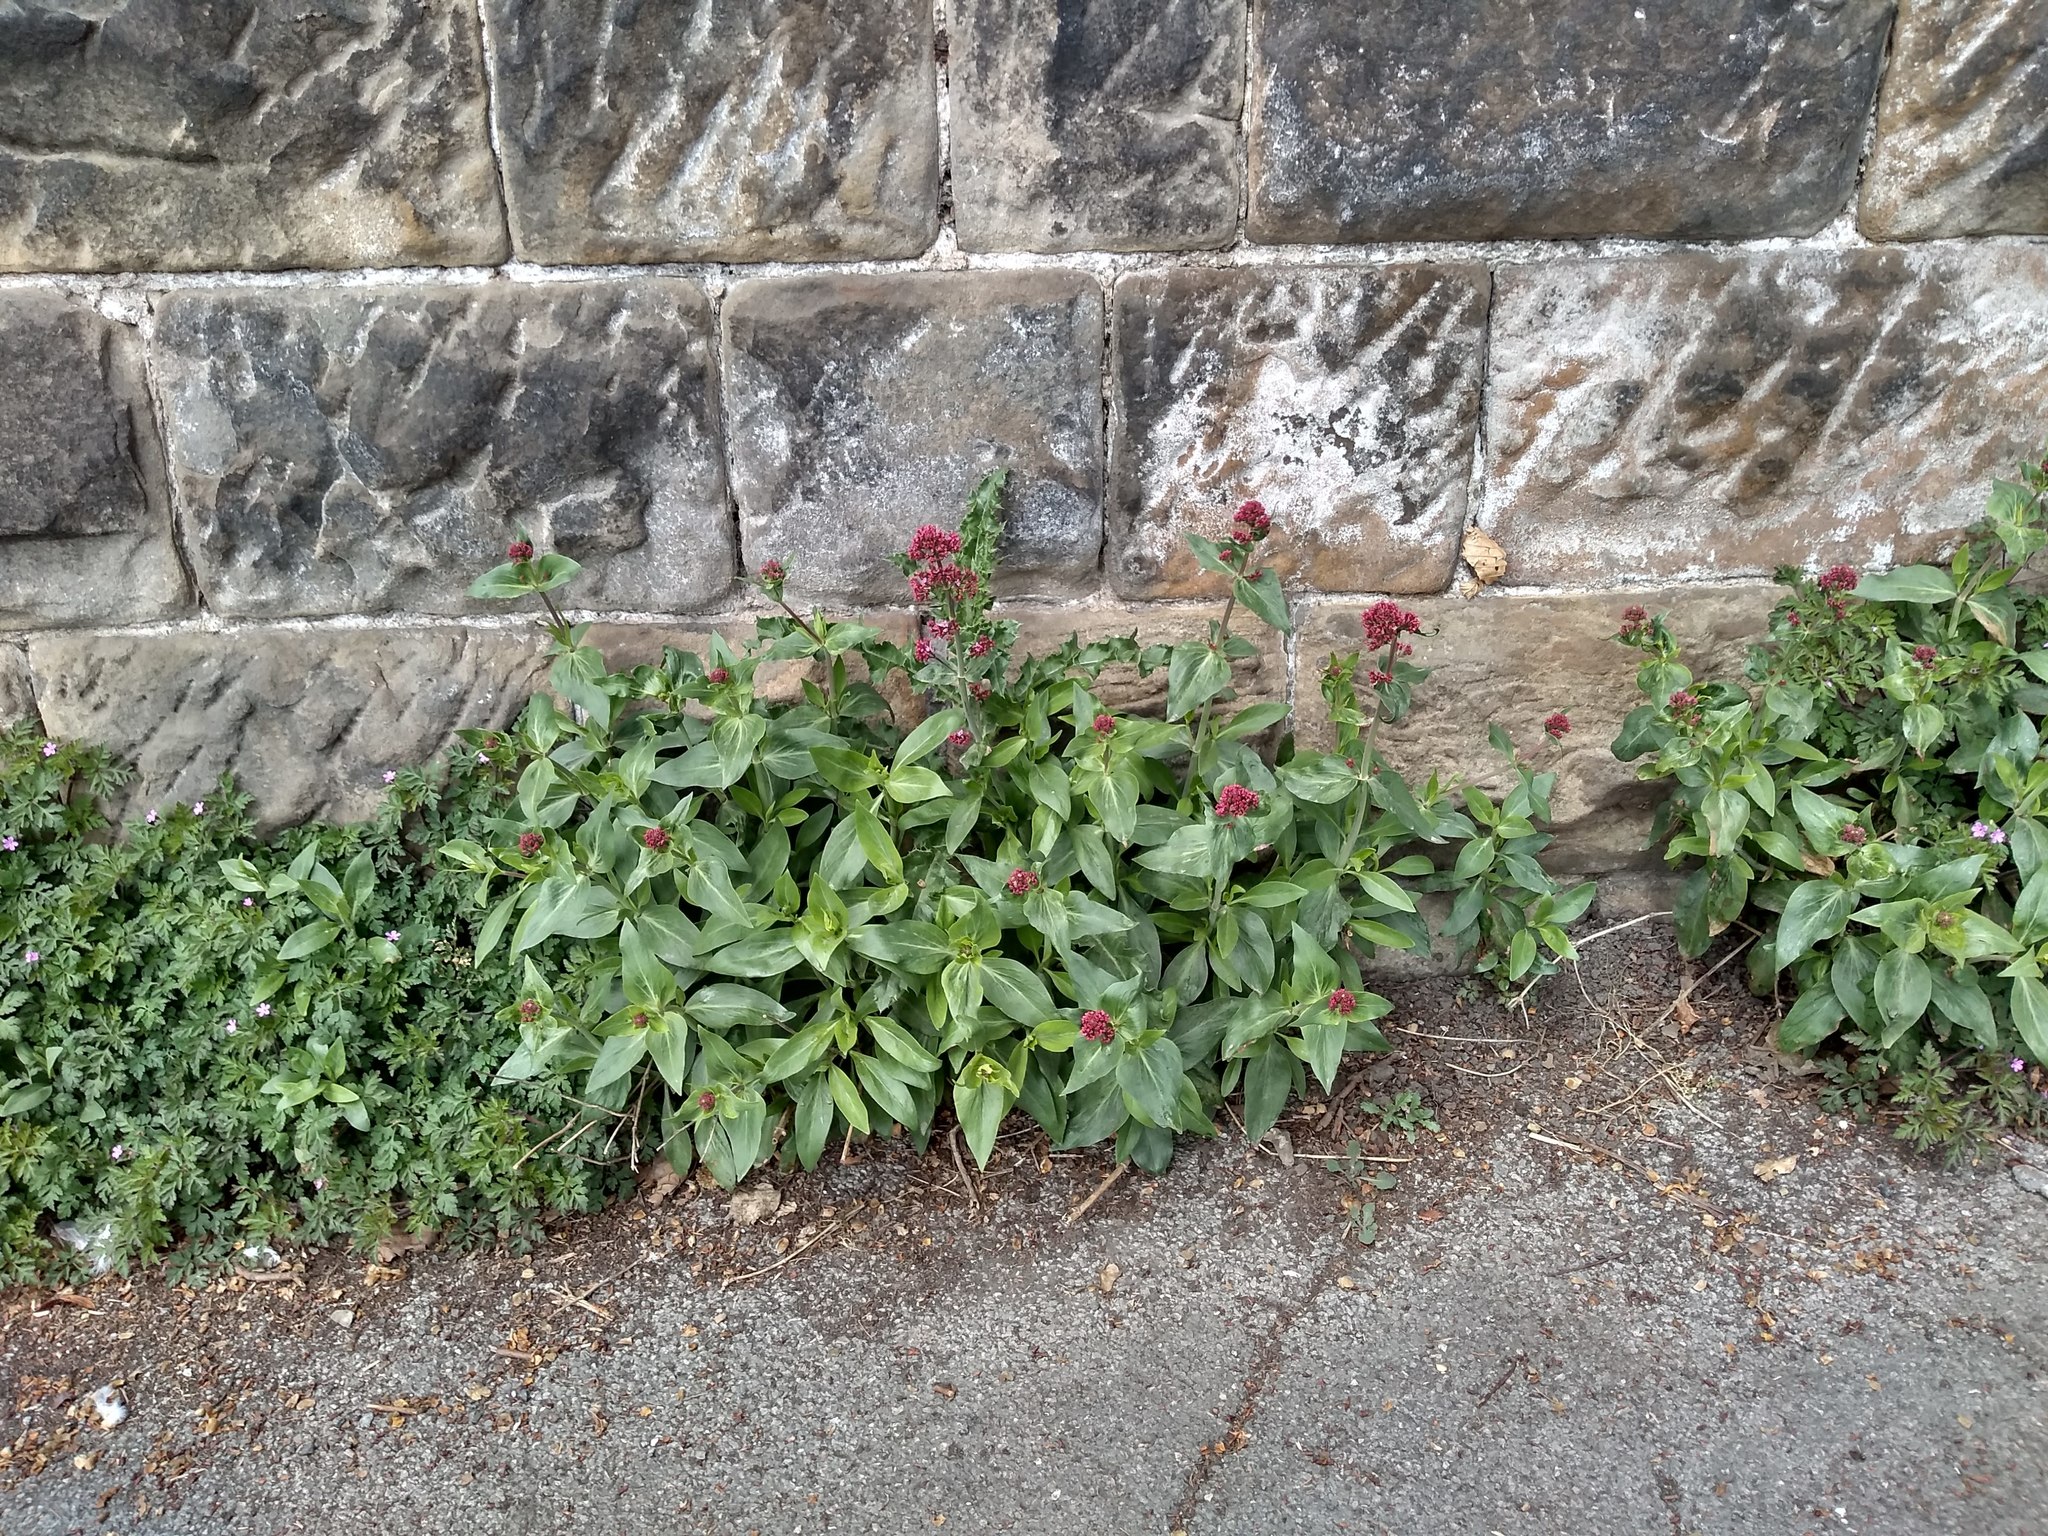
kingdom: Plantae
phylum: Tracheophyta
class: Magnoliopsida
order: Dipsacales
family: Caprifoliaceae
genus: Centranthus
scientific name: Centranthus ruber
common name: Red valerian
